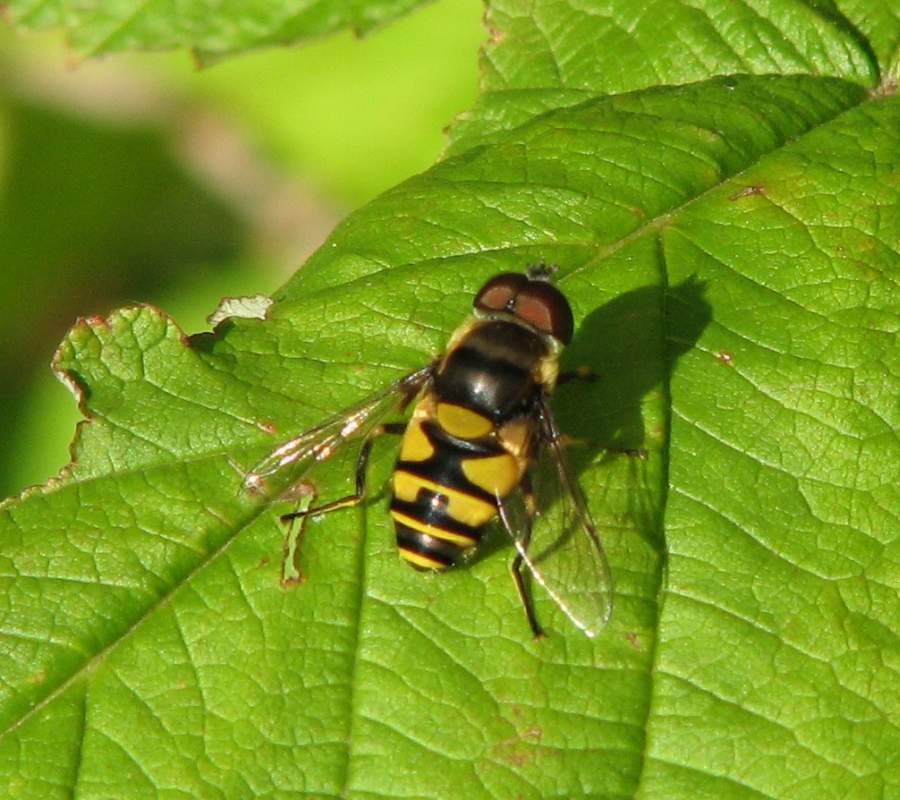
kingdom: Animalia
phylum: Arthropoda
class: Insecta
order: Diptera
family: Syrphidae
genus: Eristalis
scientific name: Eristalis transversa
